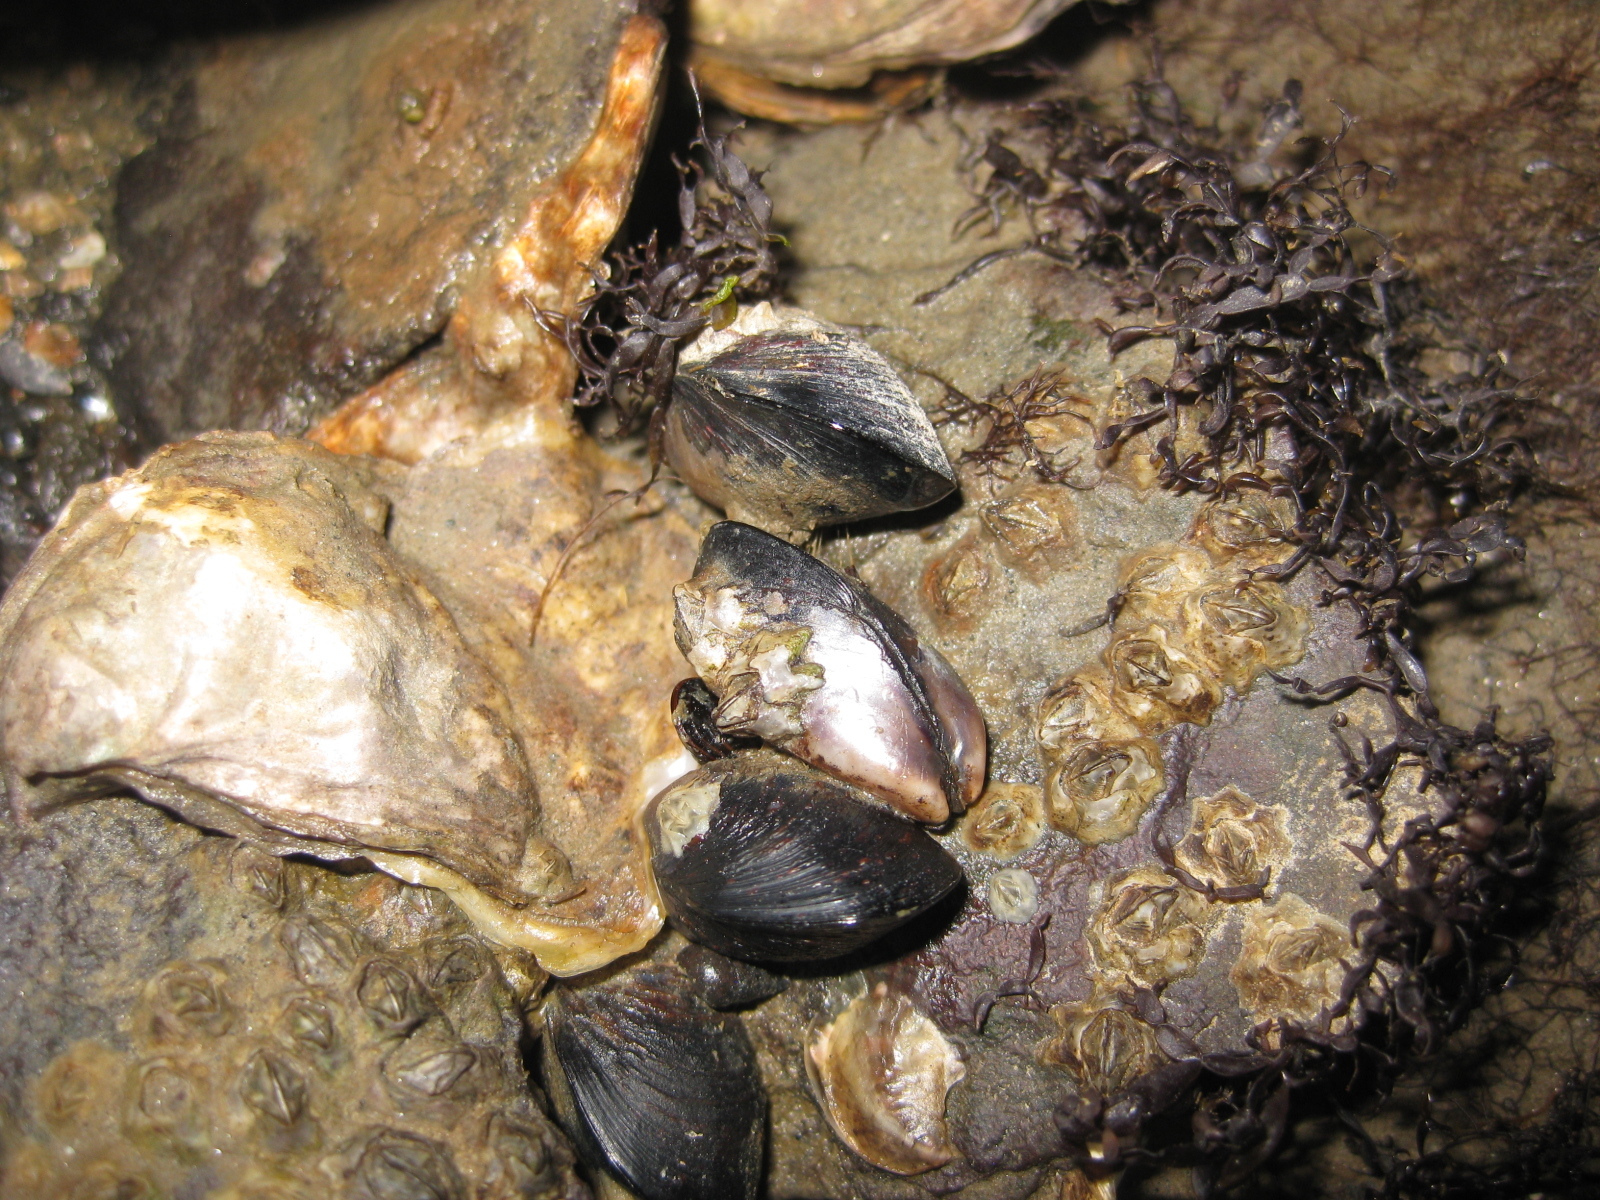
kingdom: Animalia
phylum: Mollusca
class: Bivalvia
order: Mytilida
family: Mytilidae
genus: Xenostrobus
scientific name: Xenostrobus neozelanicus
